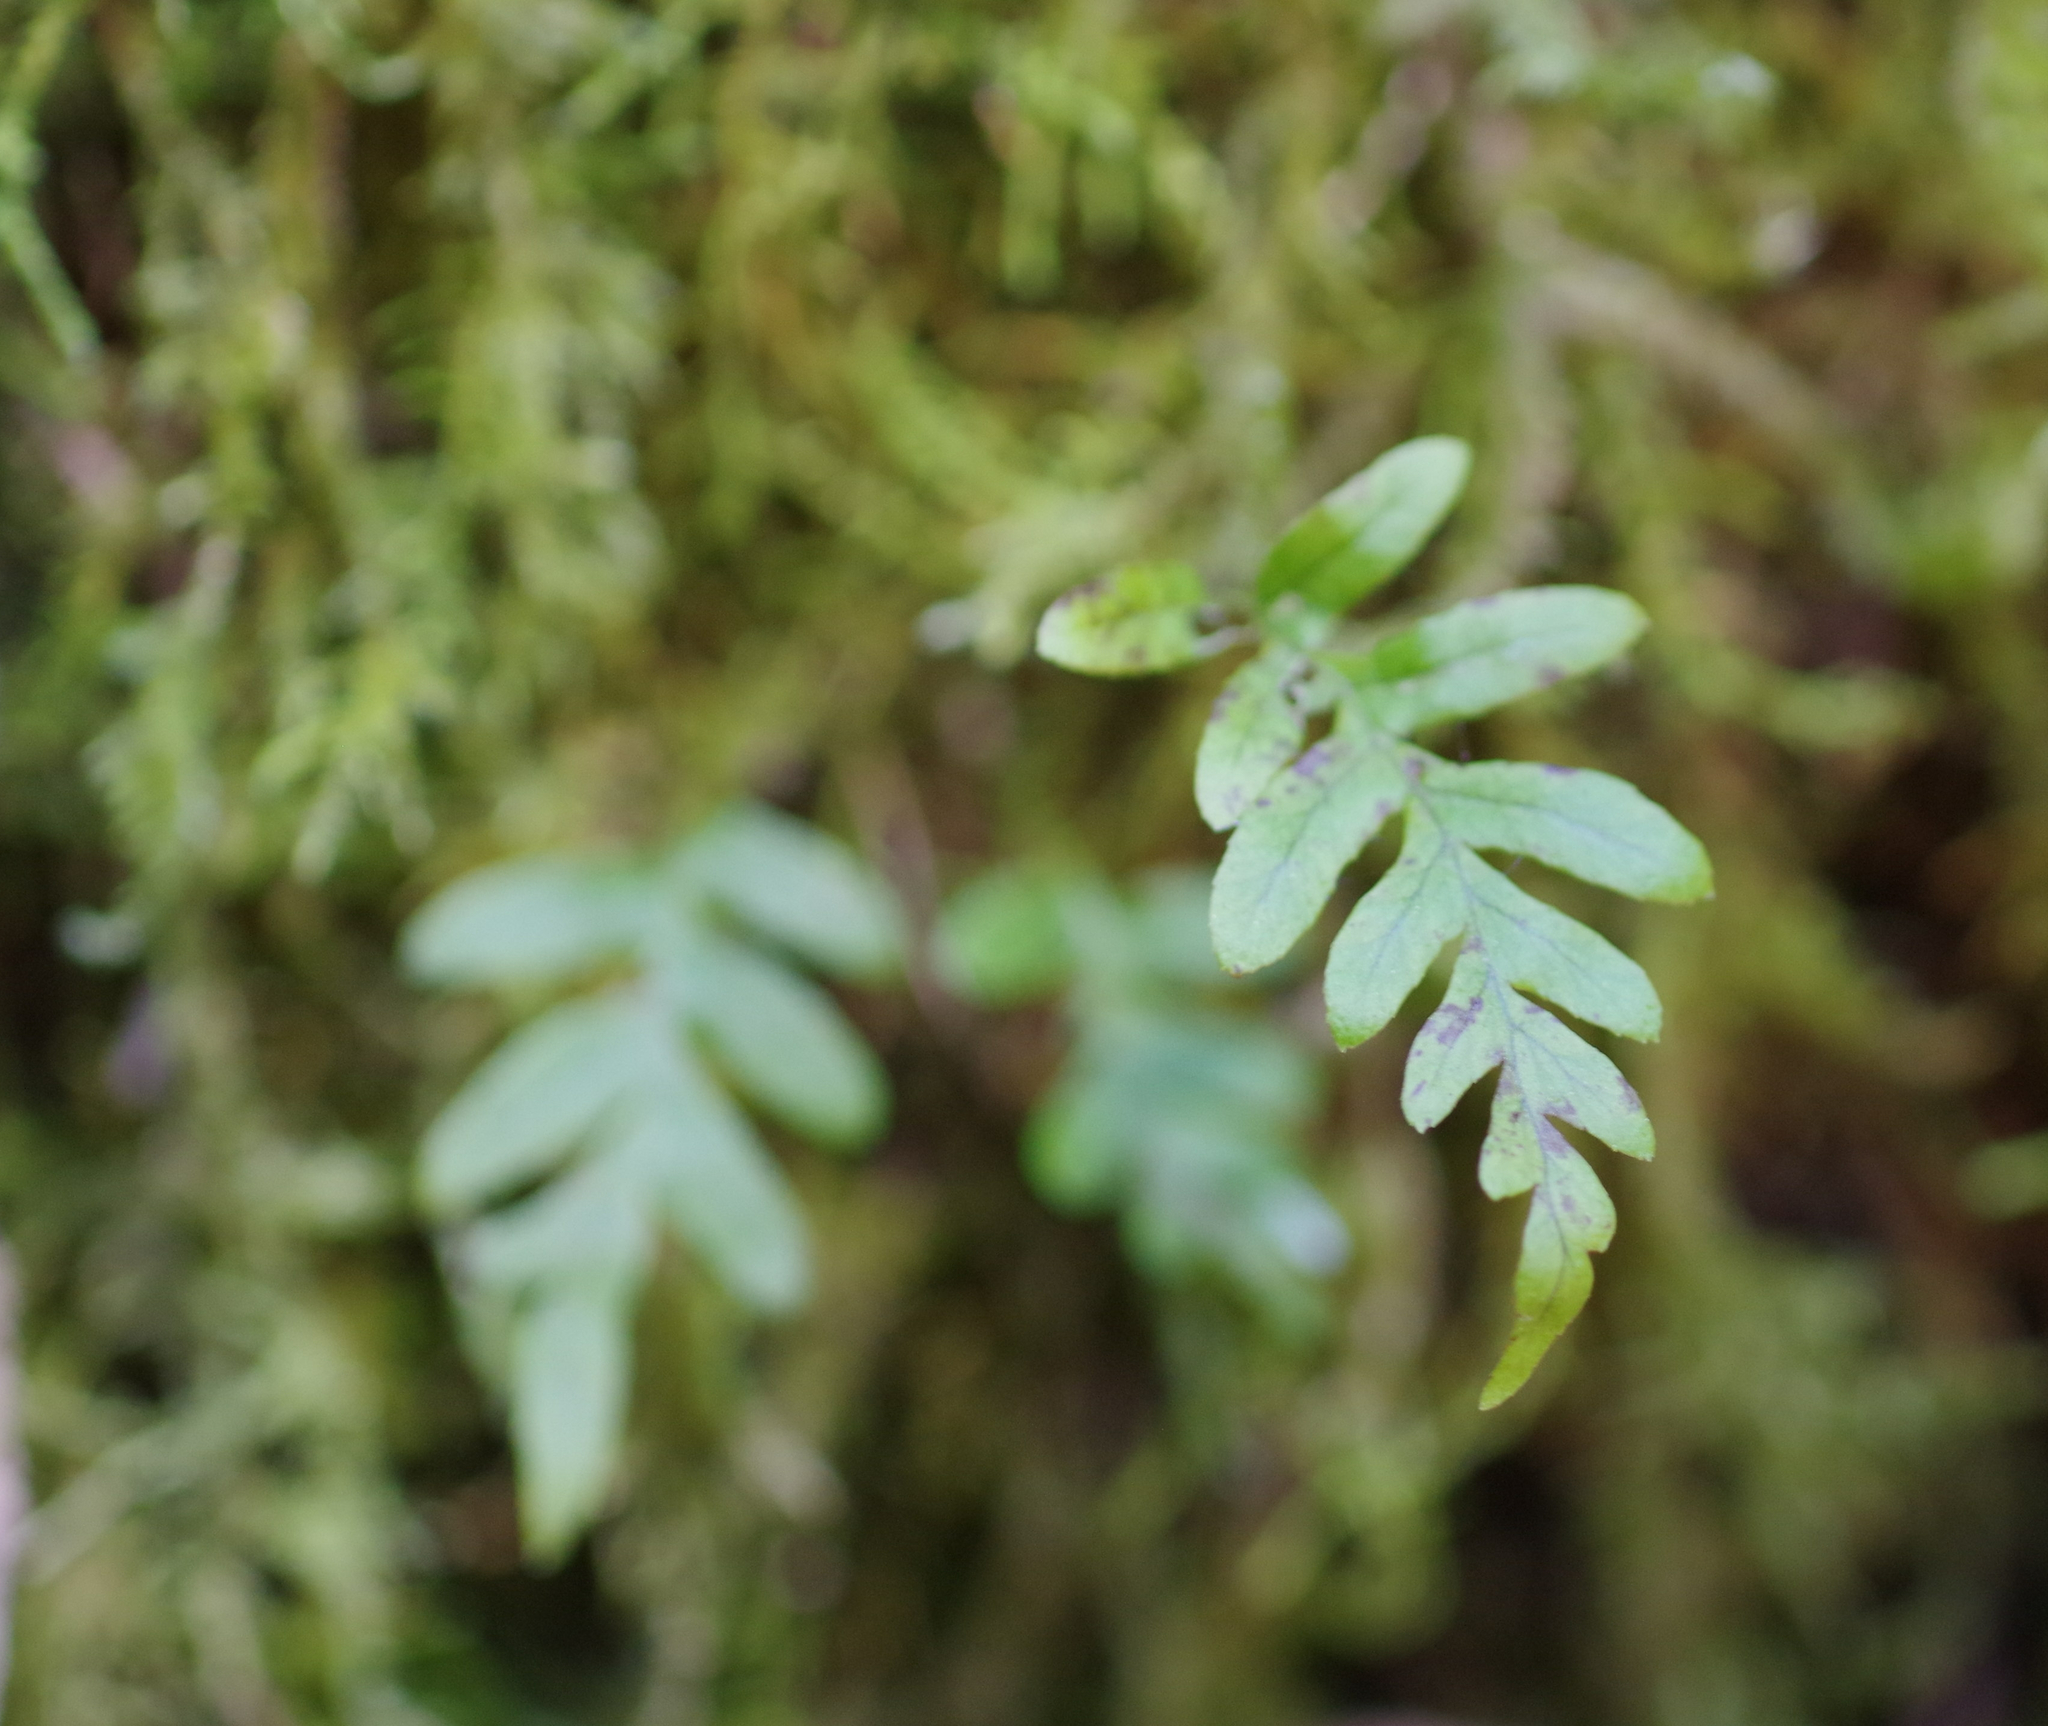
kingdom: Plantae
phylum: Tracheophyta
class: Polypodiopsida
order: Polypodiales
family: Polypodiaceae
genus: Polypodium
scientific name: Polypodium glycyrrhiza
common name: Licorice fern
